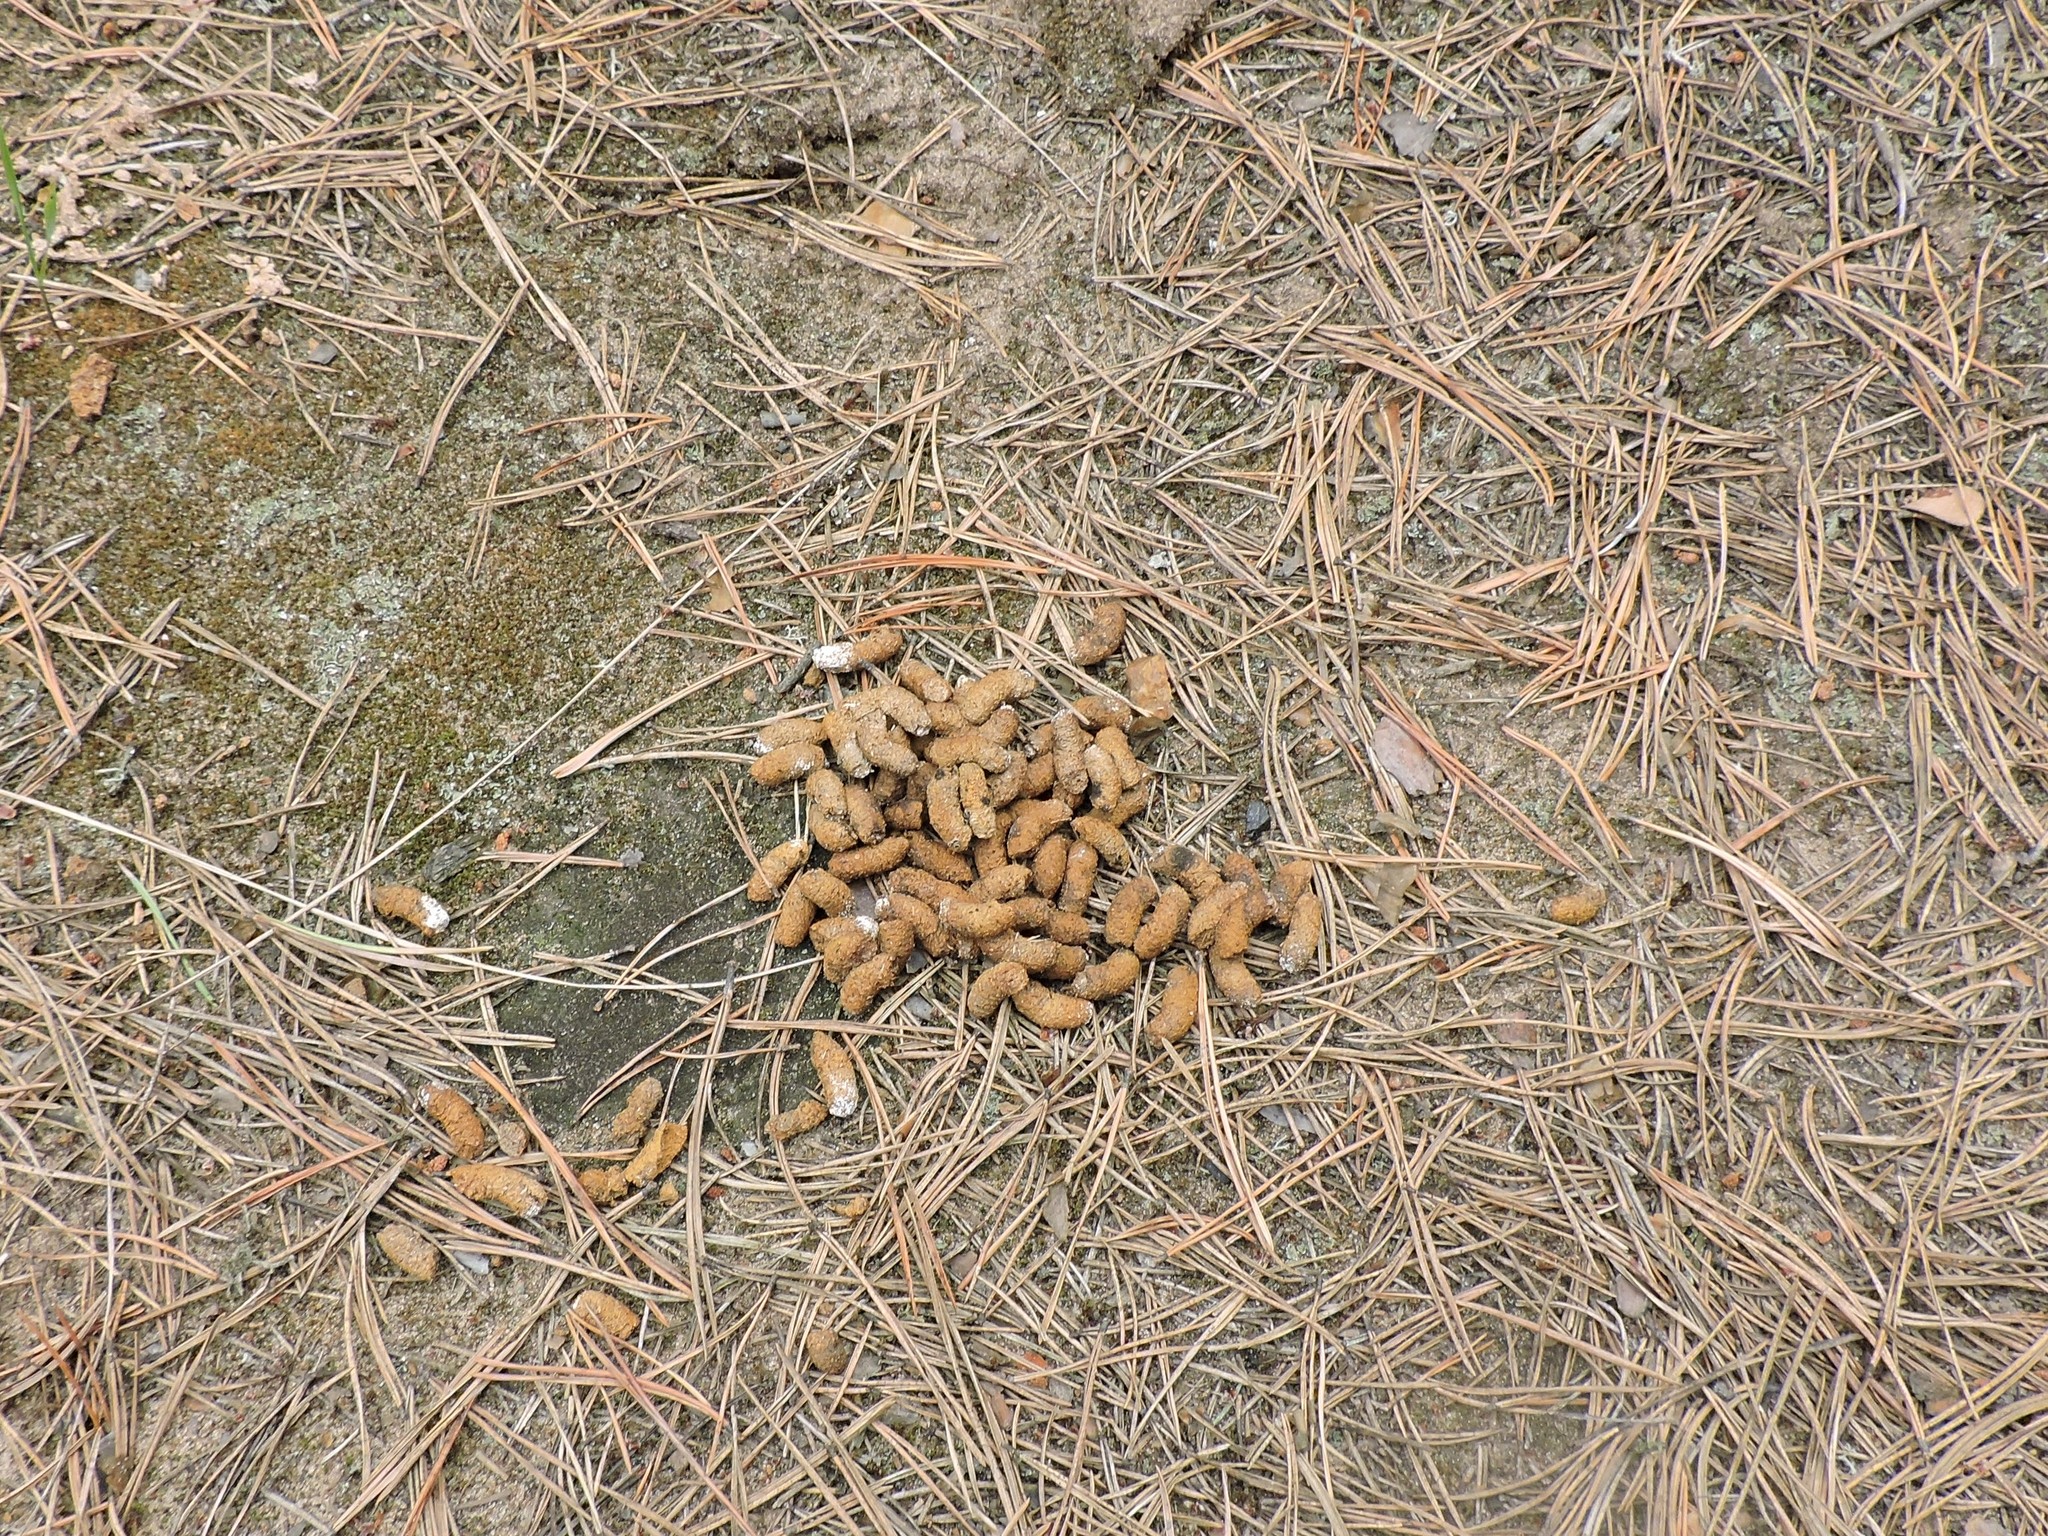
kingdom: Animalia
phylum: Chordata
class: Aves
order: Galliformes
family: Phasianidae
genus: Tetrastes
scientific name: Tetrastes bonasia
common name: Hazel grouse
